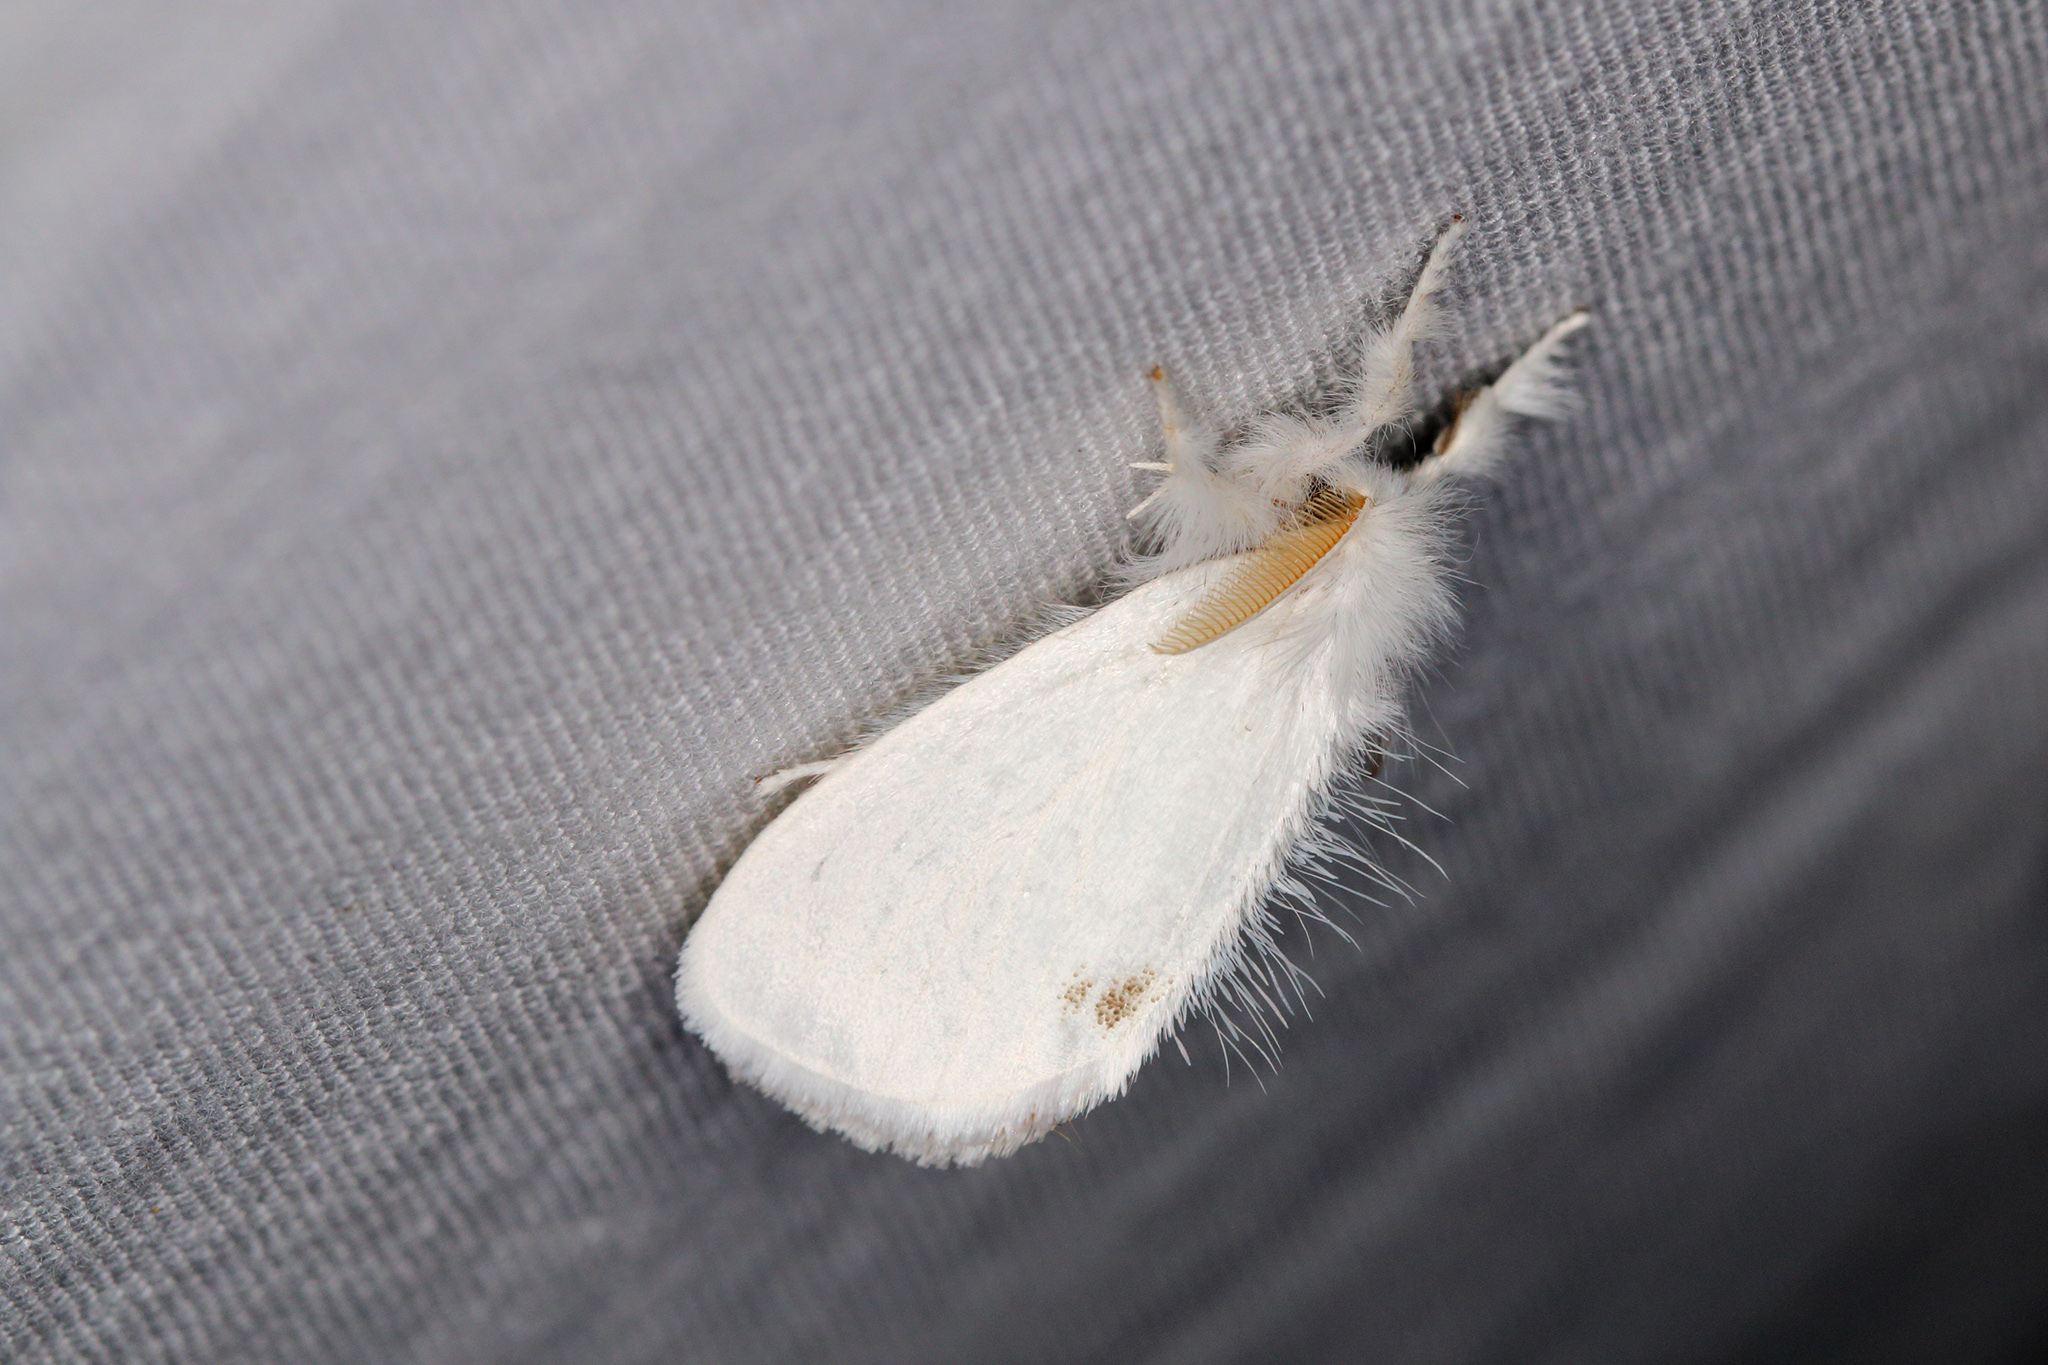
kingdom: Animalia
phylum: Arthropoda
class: Insecta
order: Lepidoptera
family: Erebidae
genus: Sphrageidus
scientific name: Sphrageidus similis
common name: Yellow-tail
